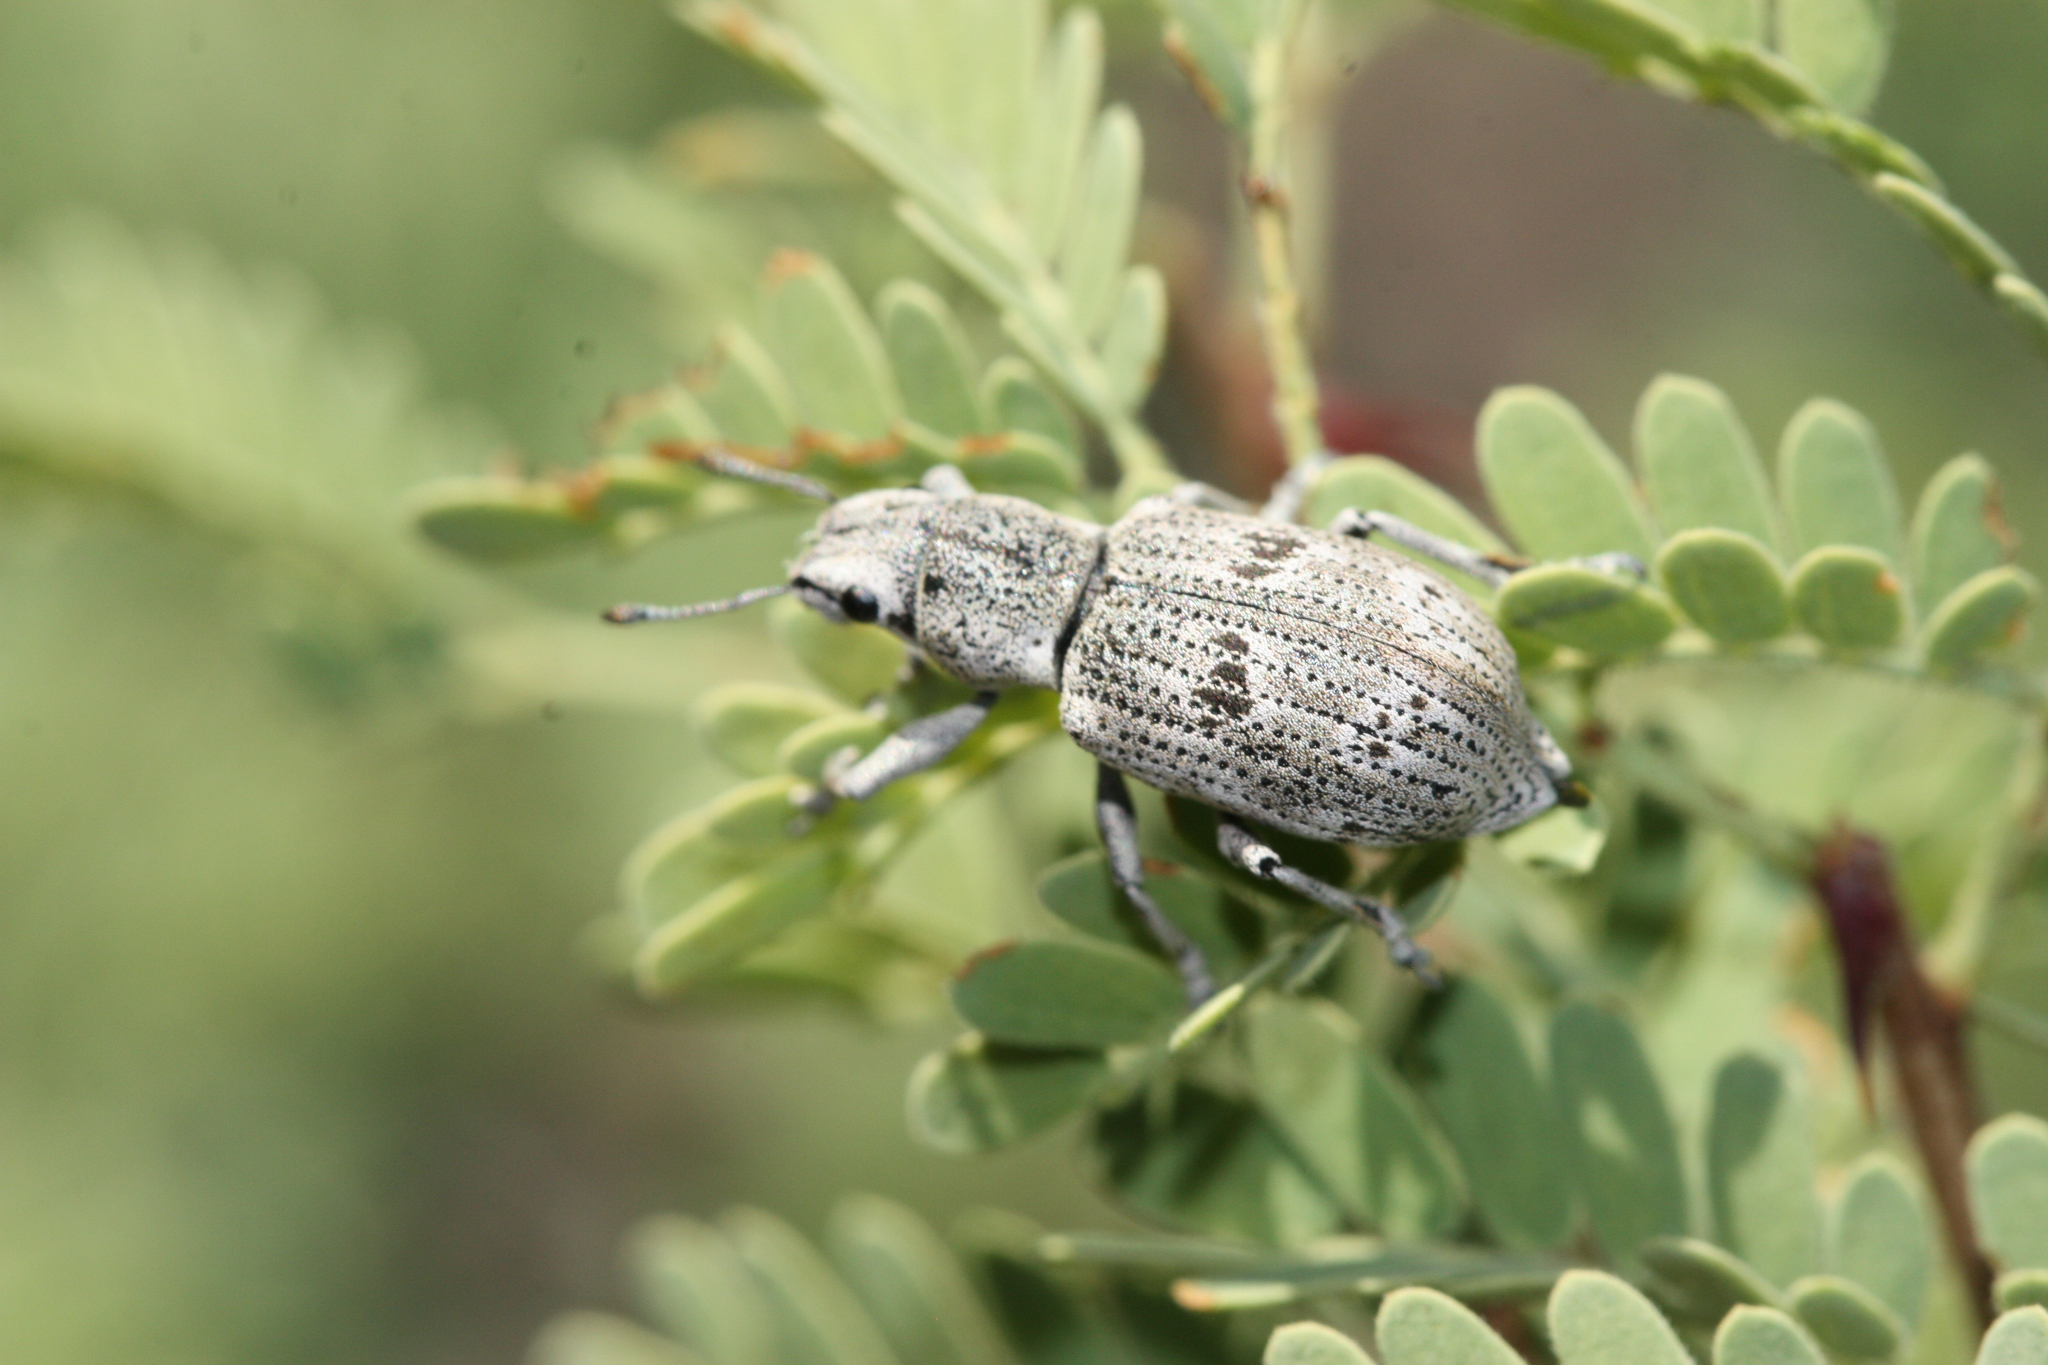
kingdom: Animalia
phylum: Arthropoda
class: Insecta
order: Coleoptera
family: Curculionidae
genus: Ericydeus
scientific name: Ericydeus lautus
